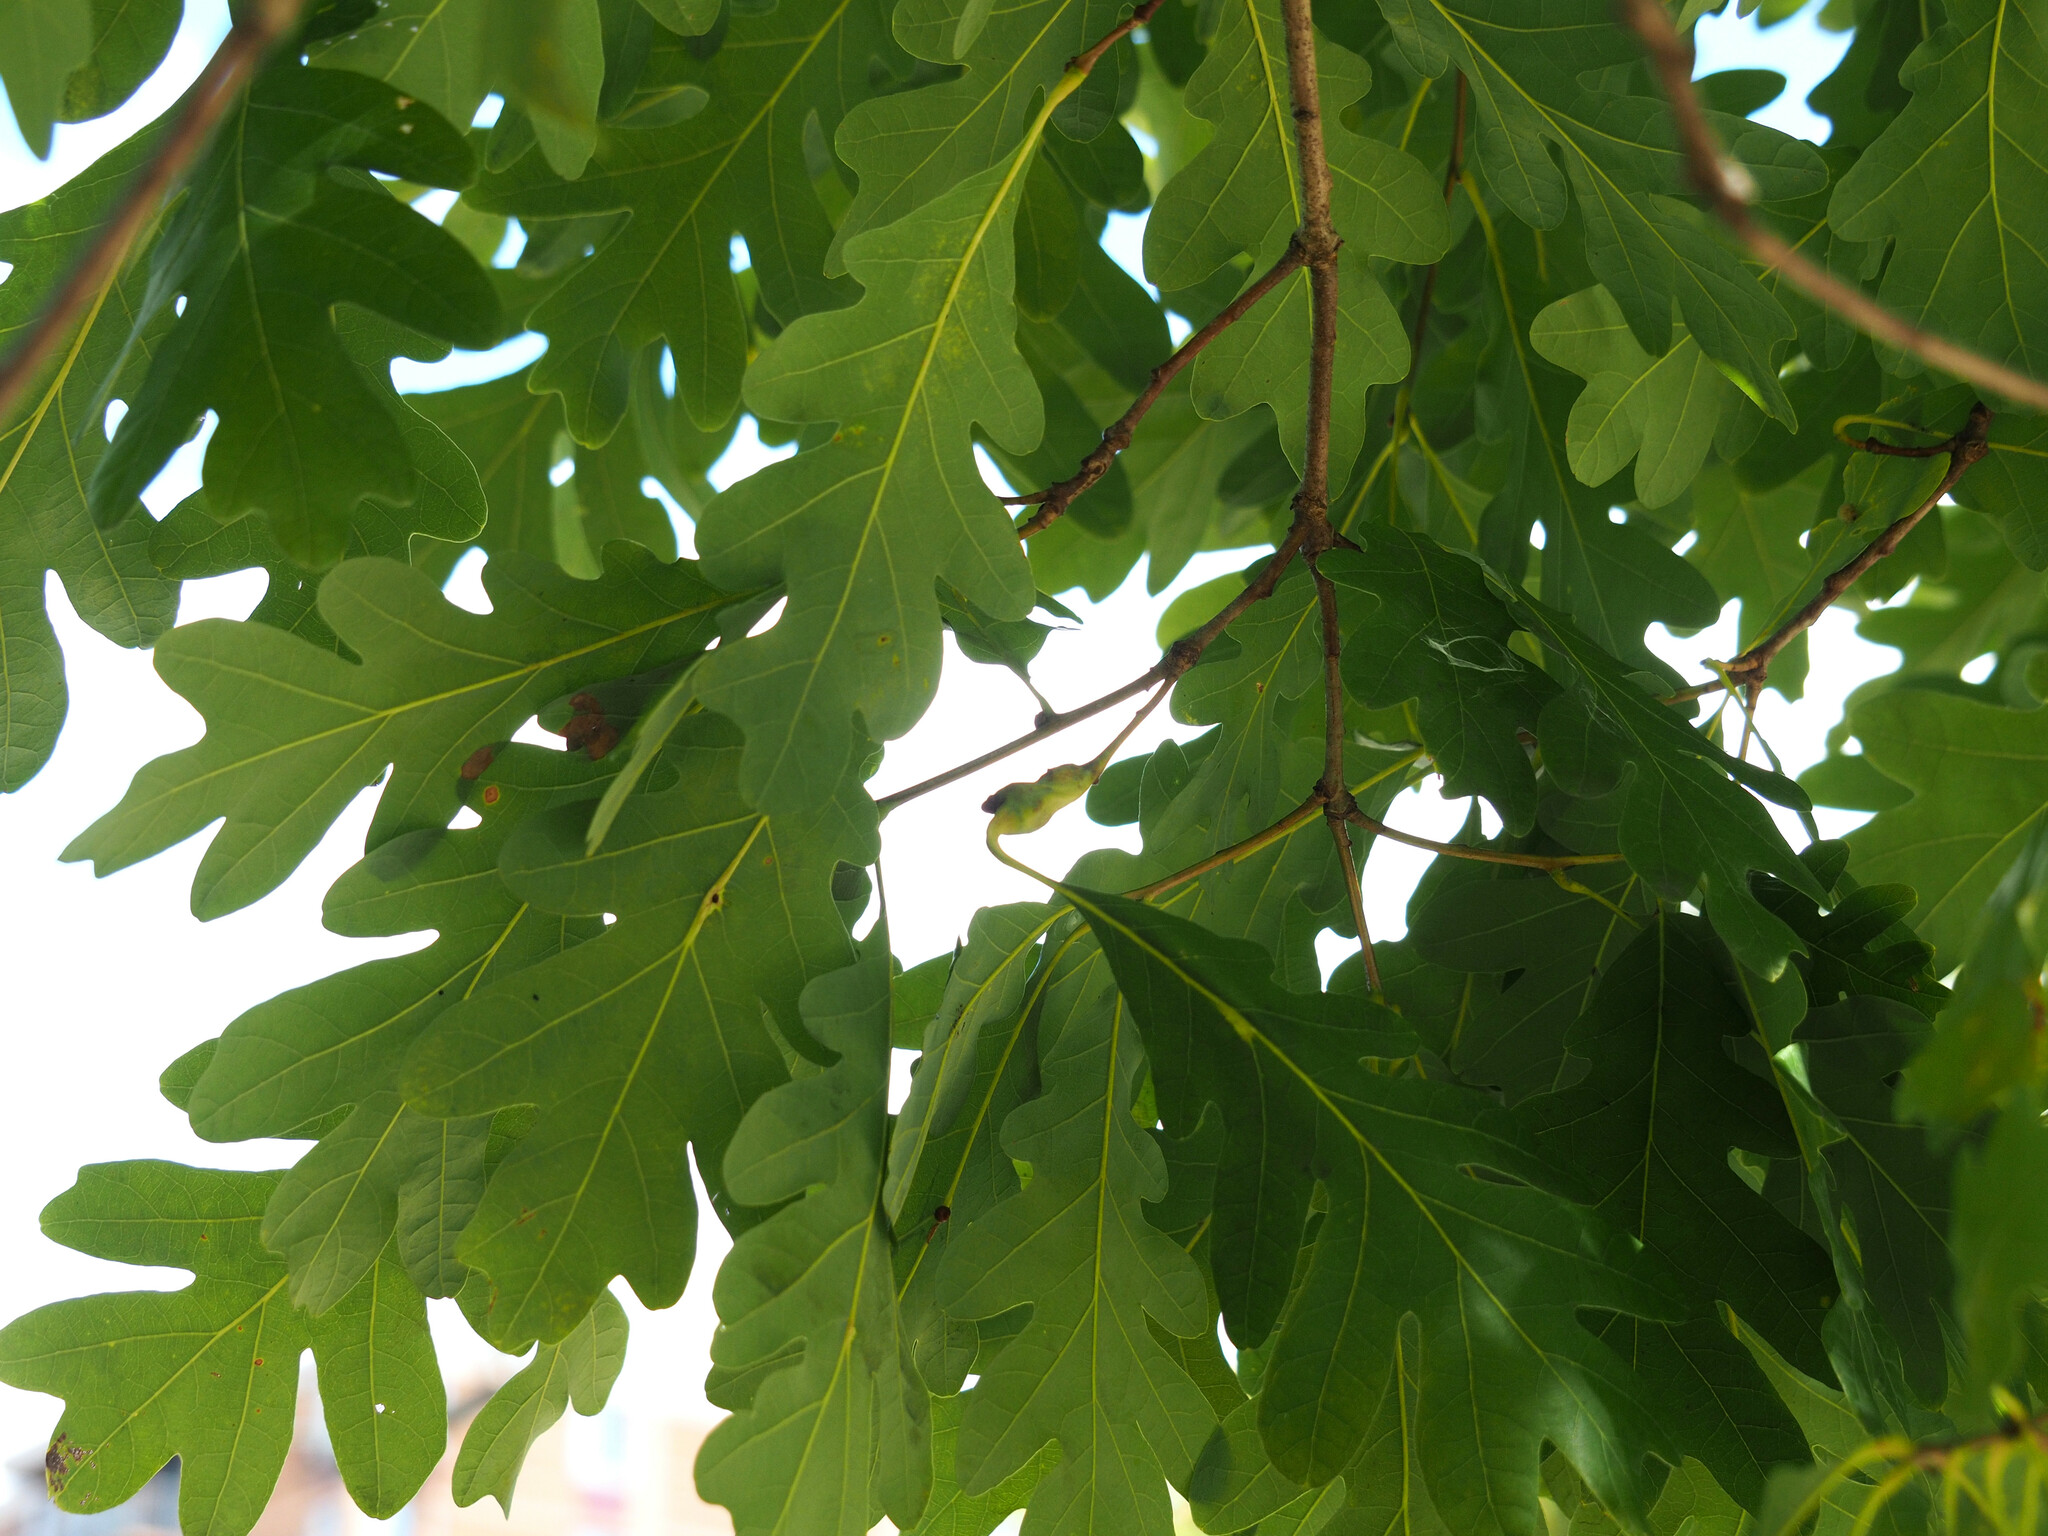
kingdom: Animalia
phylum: Arthropoda
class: Insecta
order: Hymenoptera
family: Cynipidae
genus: Neuroterus
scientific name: Neuroterus quercusbaccarum
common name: Common spangle gall
